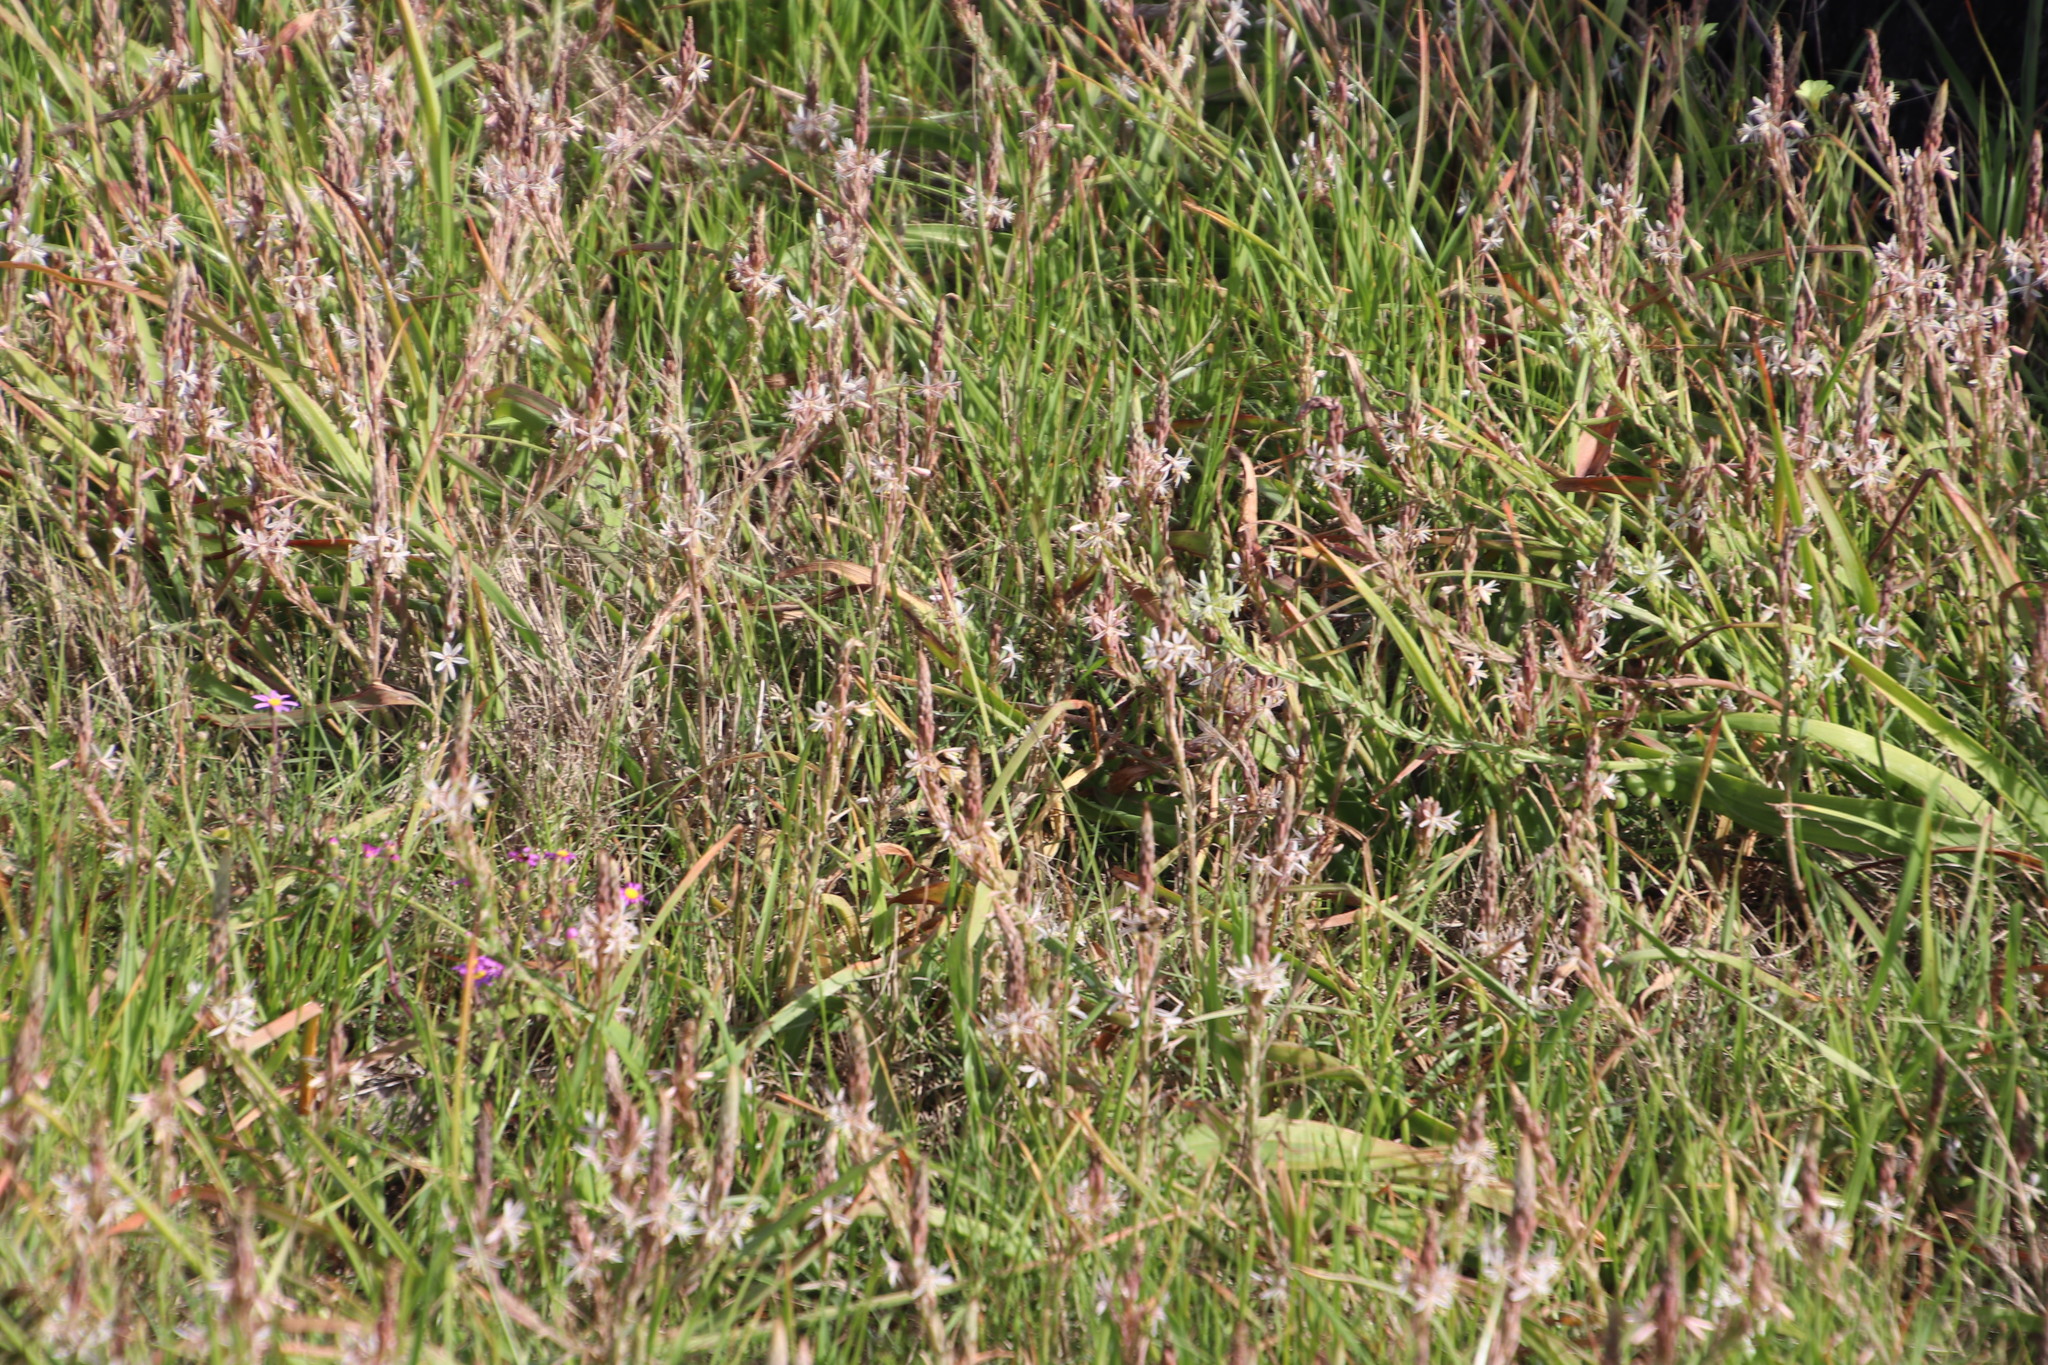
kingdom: Plantae
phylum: Tracheophyta
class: Liliopsida
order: Asparagales
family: Asphodelaceae
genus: Trachyandra
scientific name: Trachyandra ciliata
